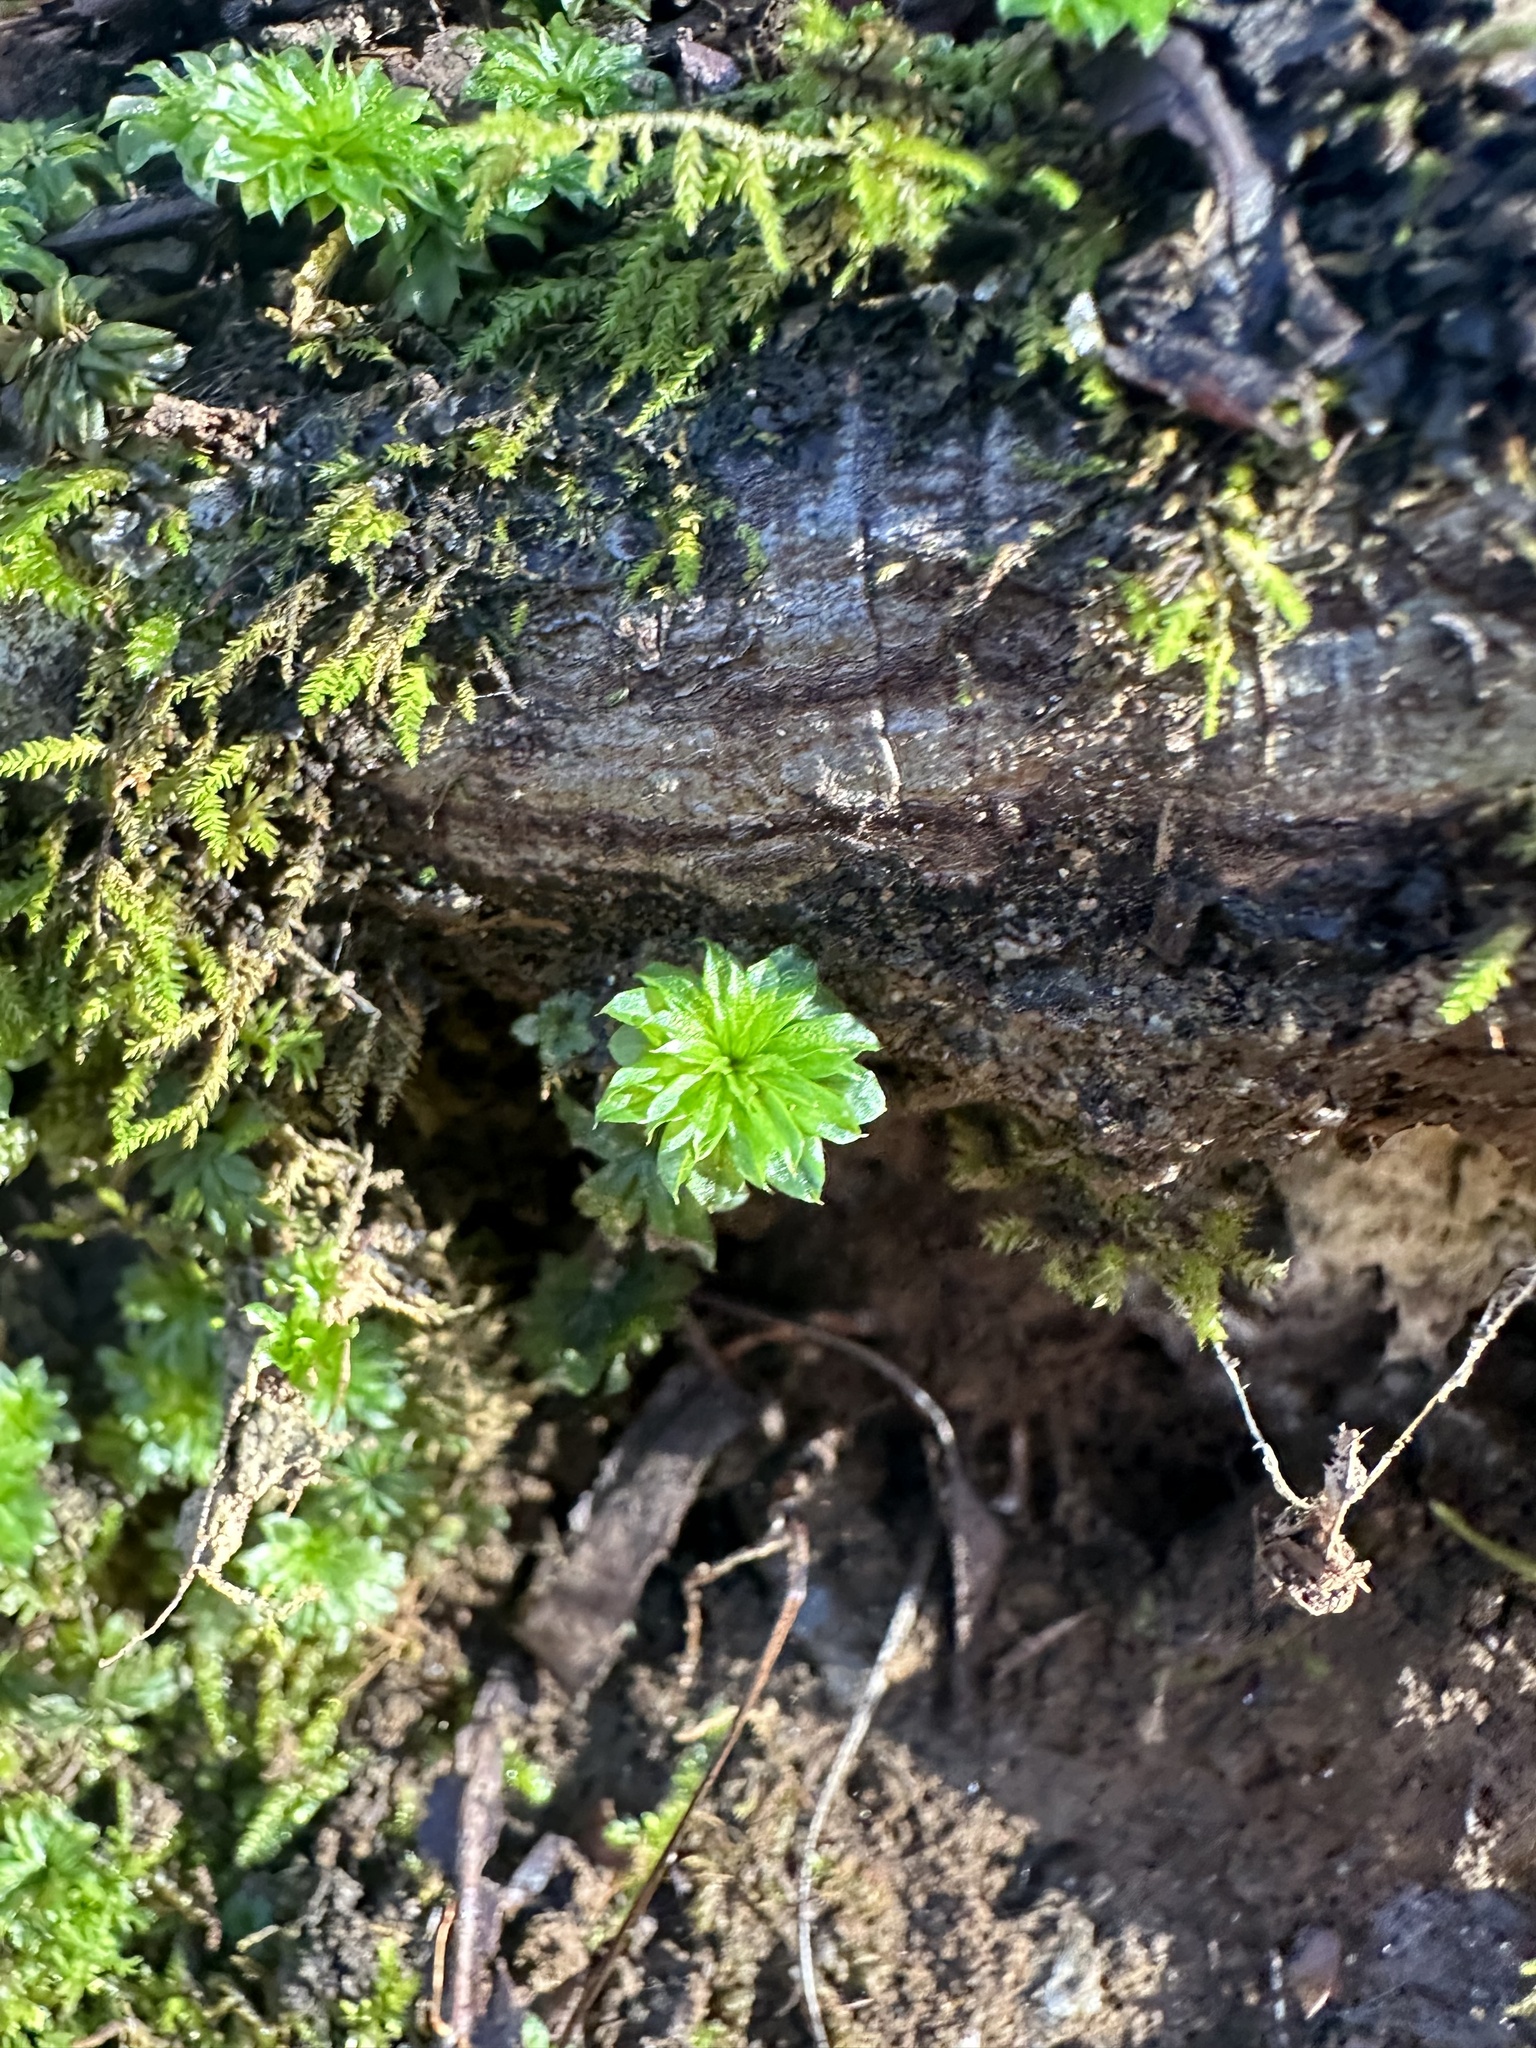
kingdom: Plantae
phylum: Bryophyta
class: Bryopsida
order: Bryales
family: Bryaceae
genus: Rhodobryum
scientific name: Rhodobryum ontariense
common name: Ontario rhodobryum moss
